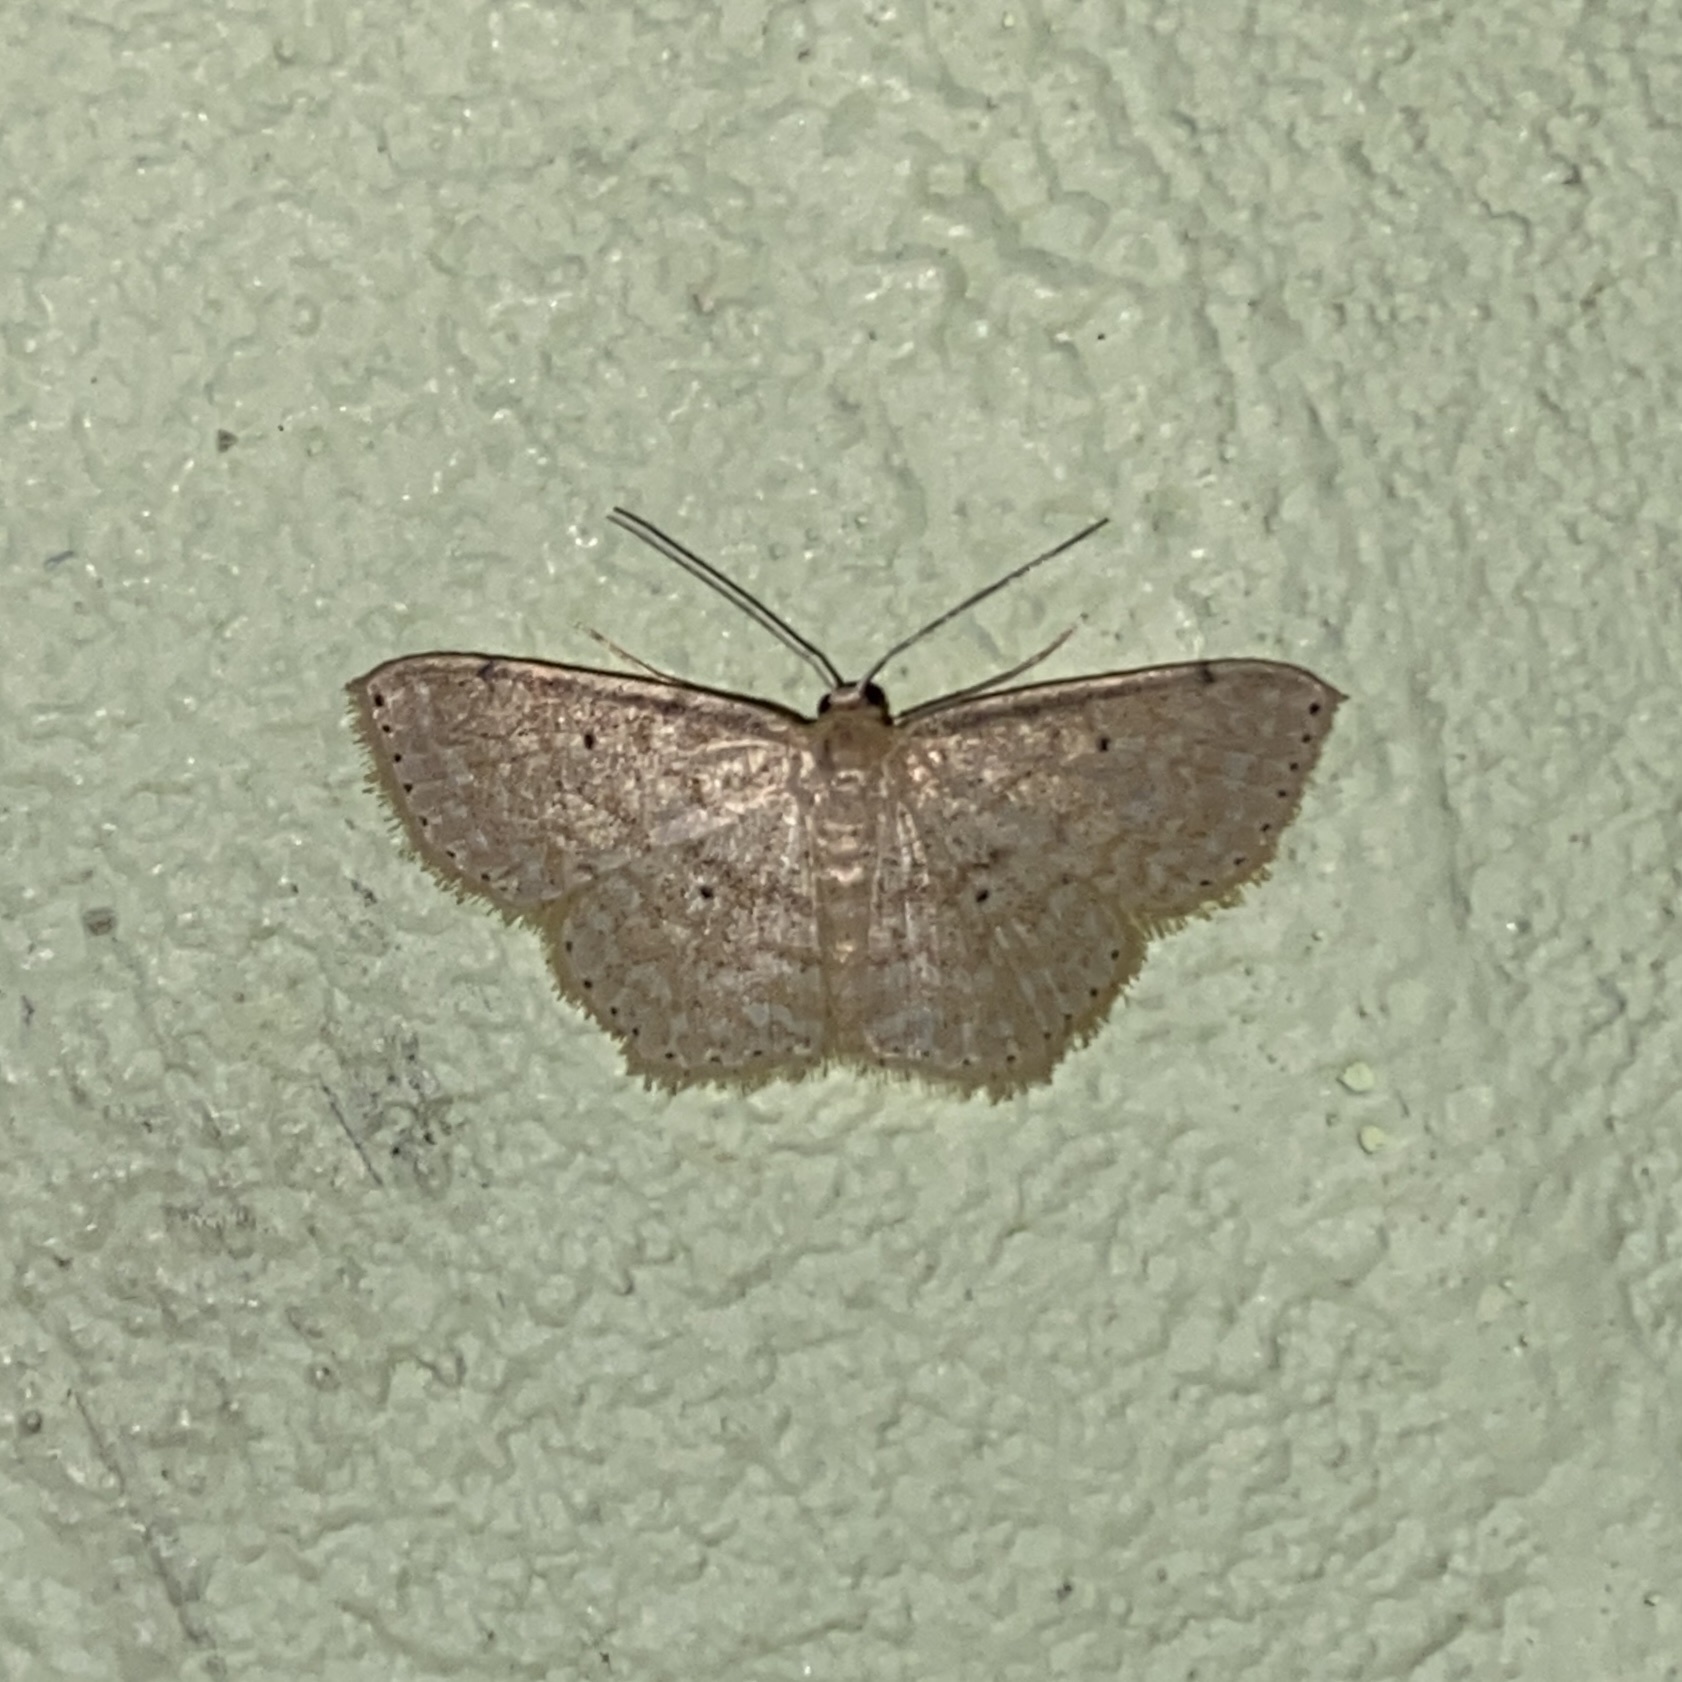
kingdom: Animalia
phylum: Arthropoda
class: Insecta
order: Lepidoptera
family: Geometridae
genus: Scopula
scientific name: Scopula subquadrata
